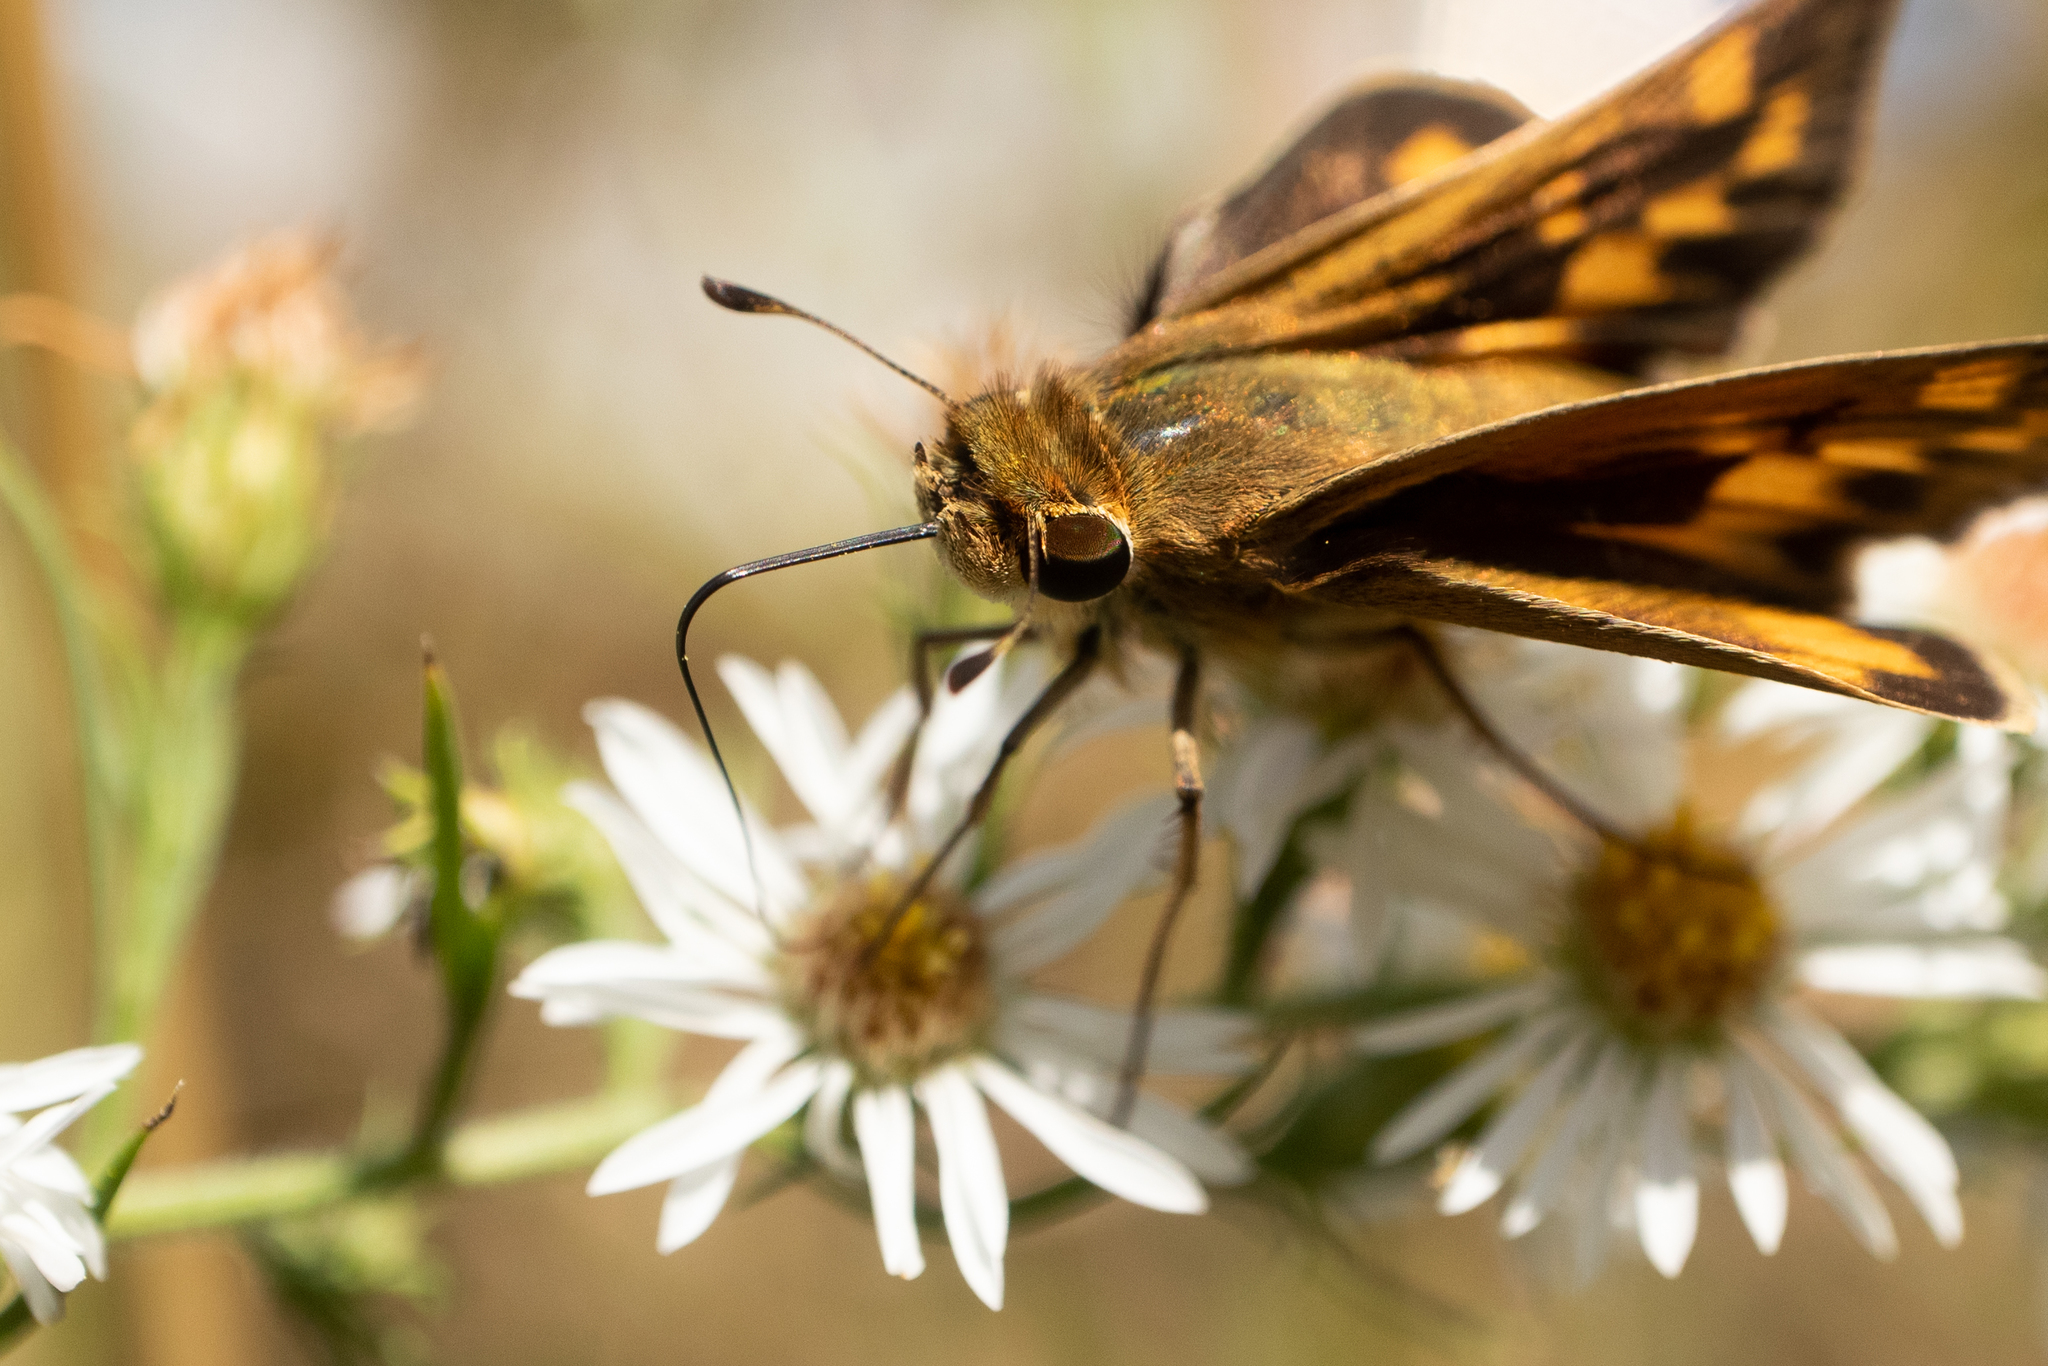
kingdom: Animalia
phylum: Arthropoda
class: Insecta
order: Lepidoptera
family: Hesperiidae
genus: Hylephila
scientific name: Hylephila phyleus
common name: Fiery skipper
